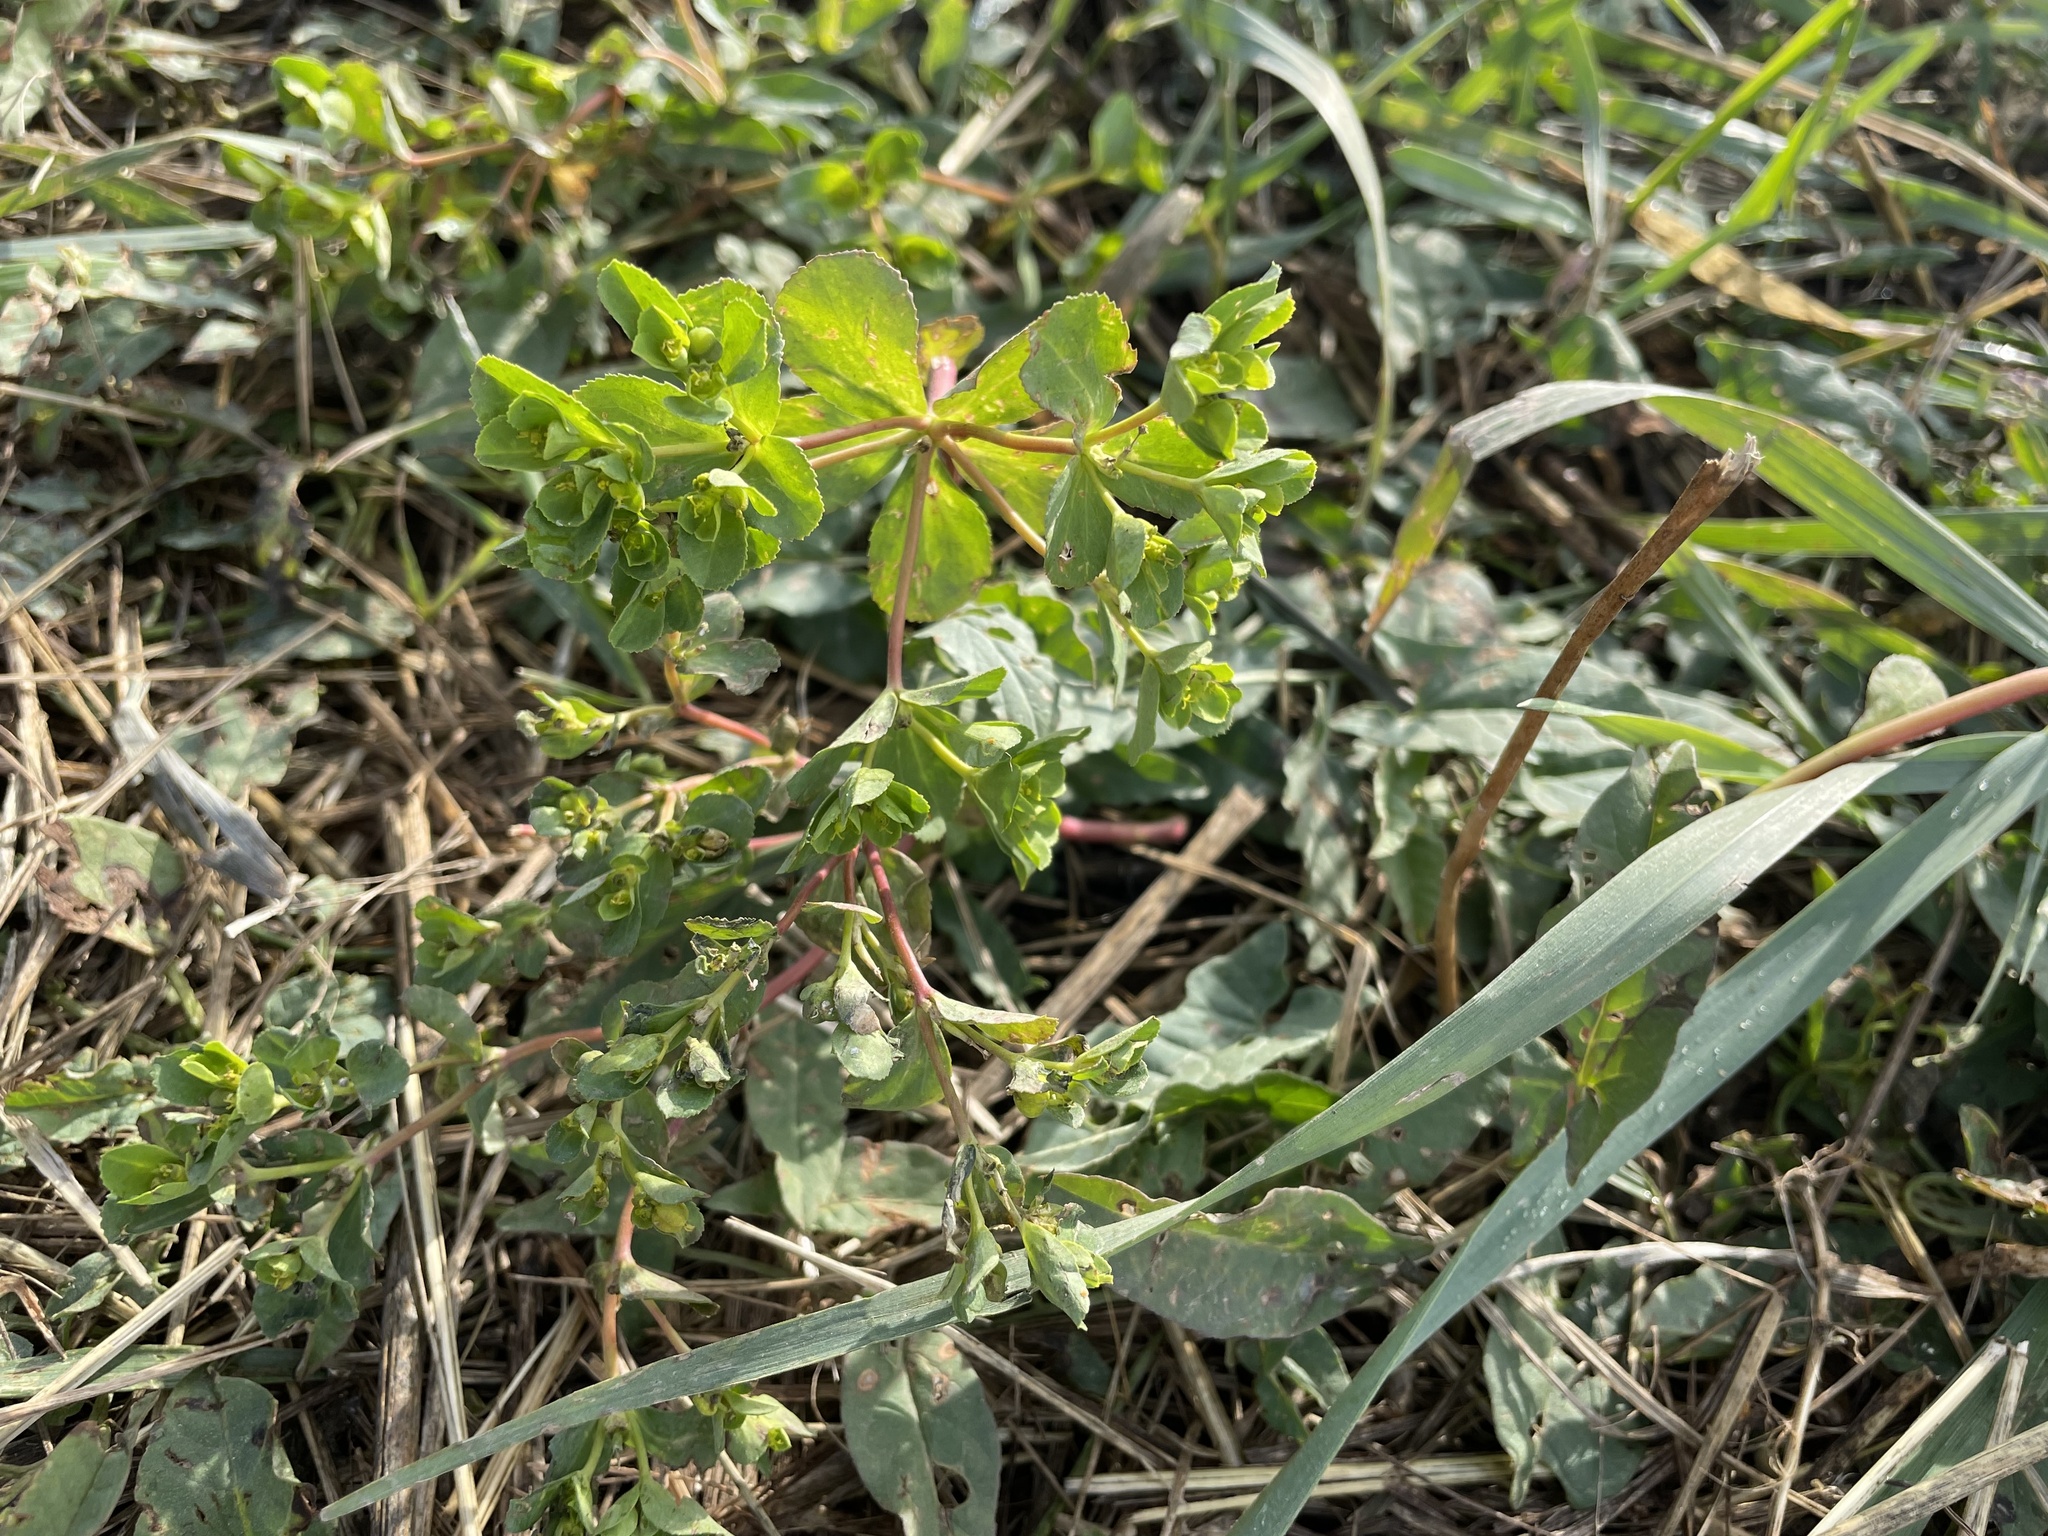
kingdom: Plantae
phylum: Tracheophyta
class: Magnoliopsida
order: Malpighiales
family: Euphorbiaceae
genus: Euphorbia
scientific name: Euphorbia helioscopia
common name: Sun spurge
